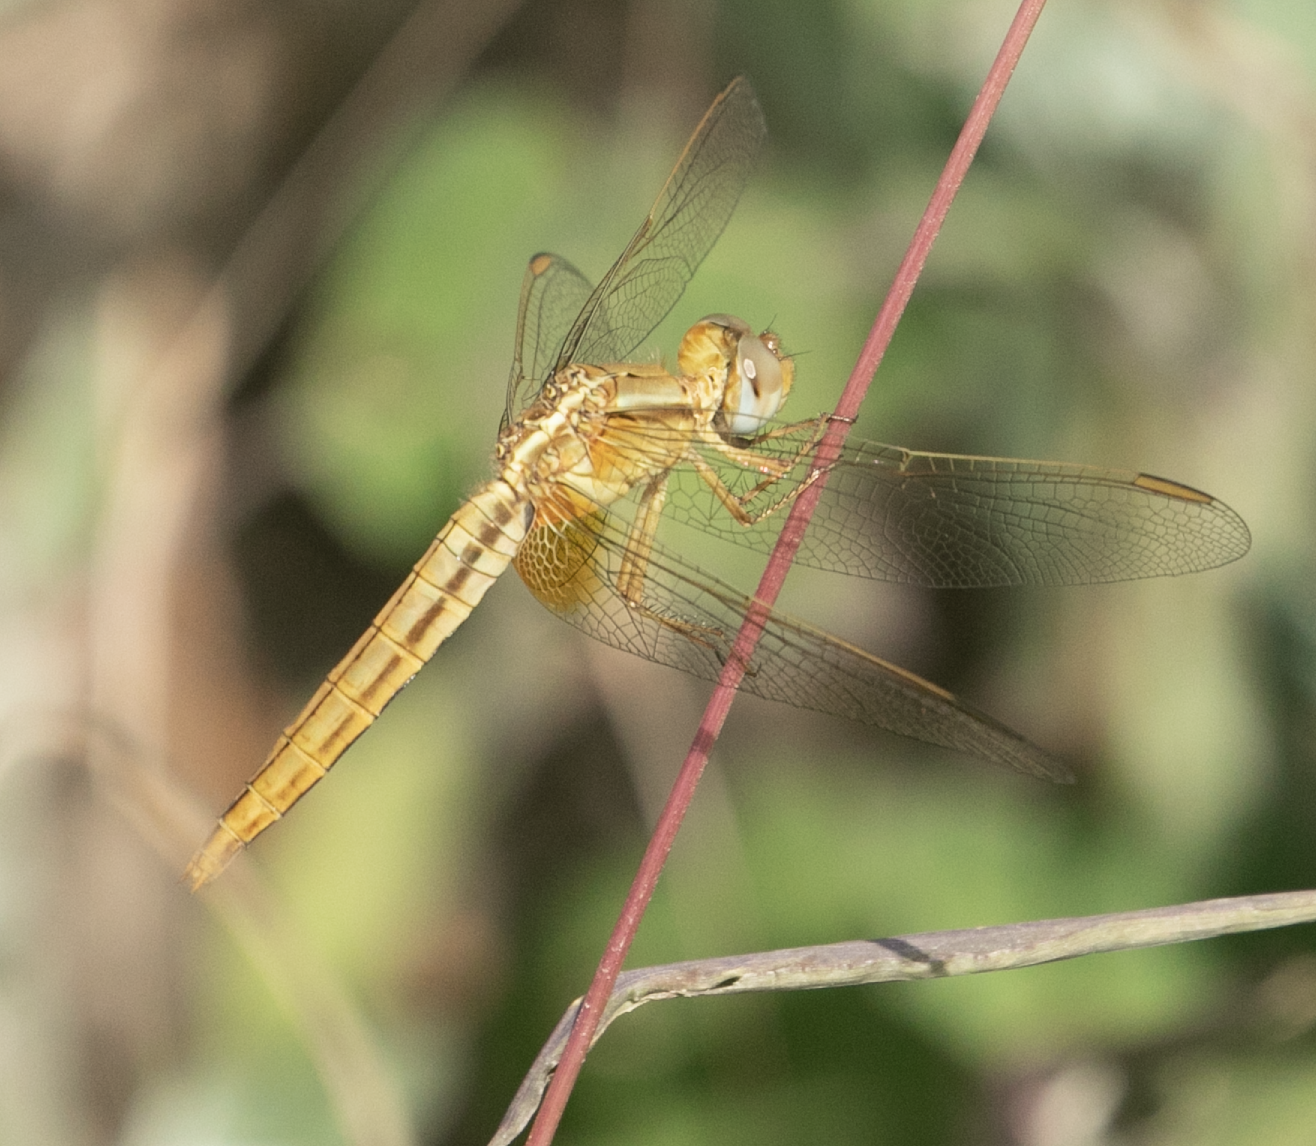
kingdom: Animalia
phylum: Arthropoda
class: Insecta
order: Odonata
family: Libellulidae
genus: Crocothemis
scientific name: Crocothemis erythraea
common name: Scarlet dragonfly
